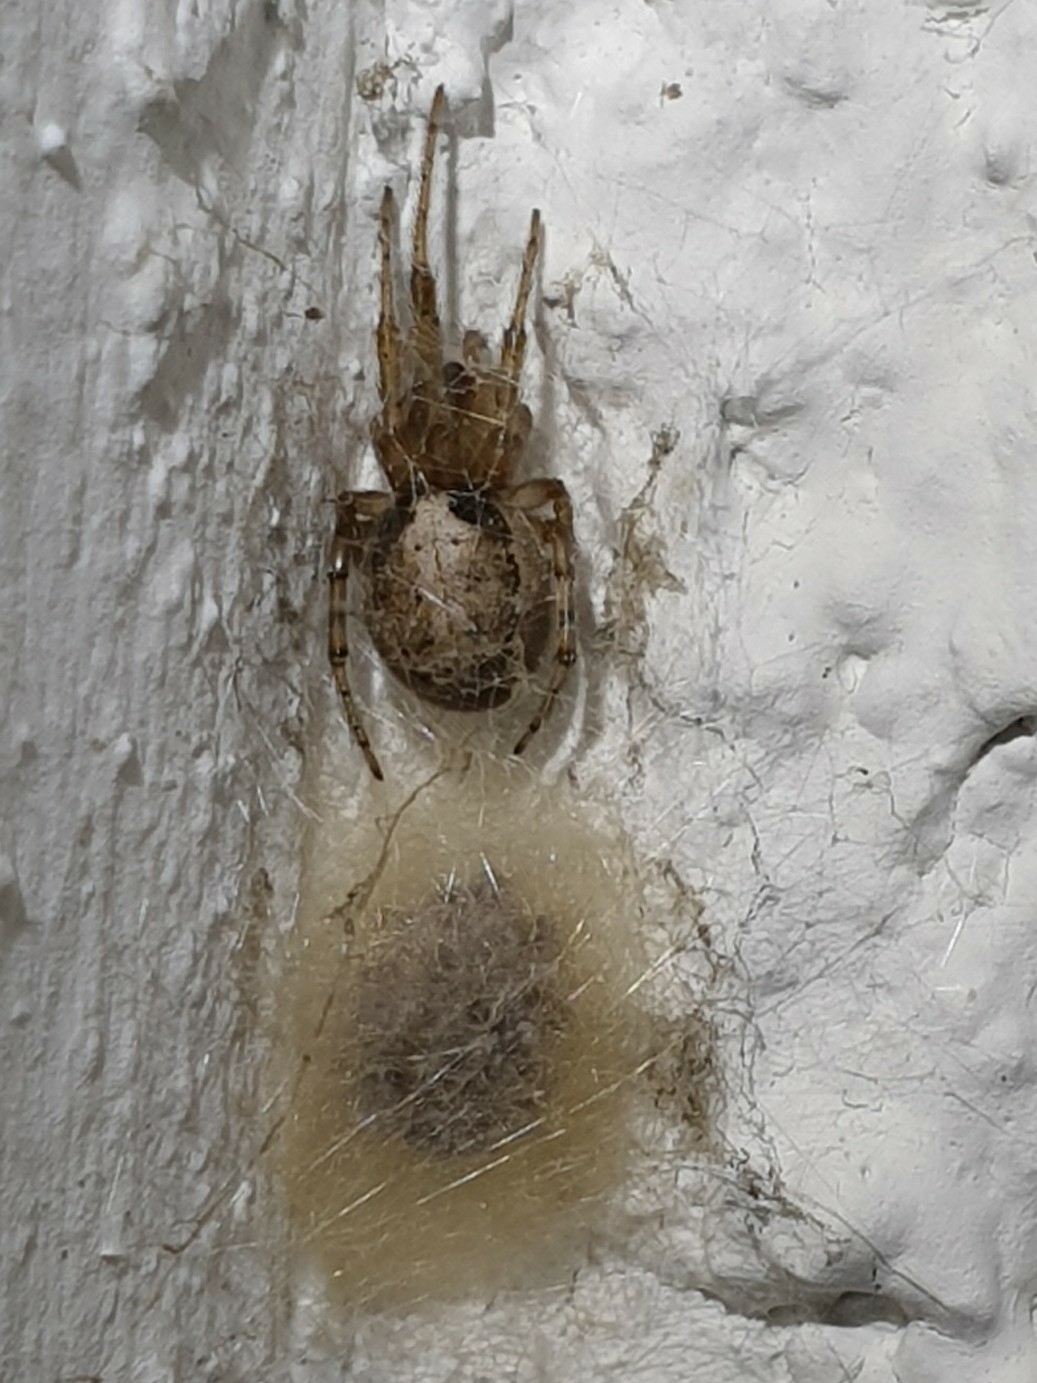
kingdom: Animalia
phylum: Arthropoda
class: Arachnida
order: Araneae
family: Araneidae
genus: Zygiella
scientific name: Zygiella x-notata
